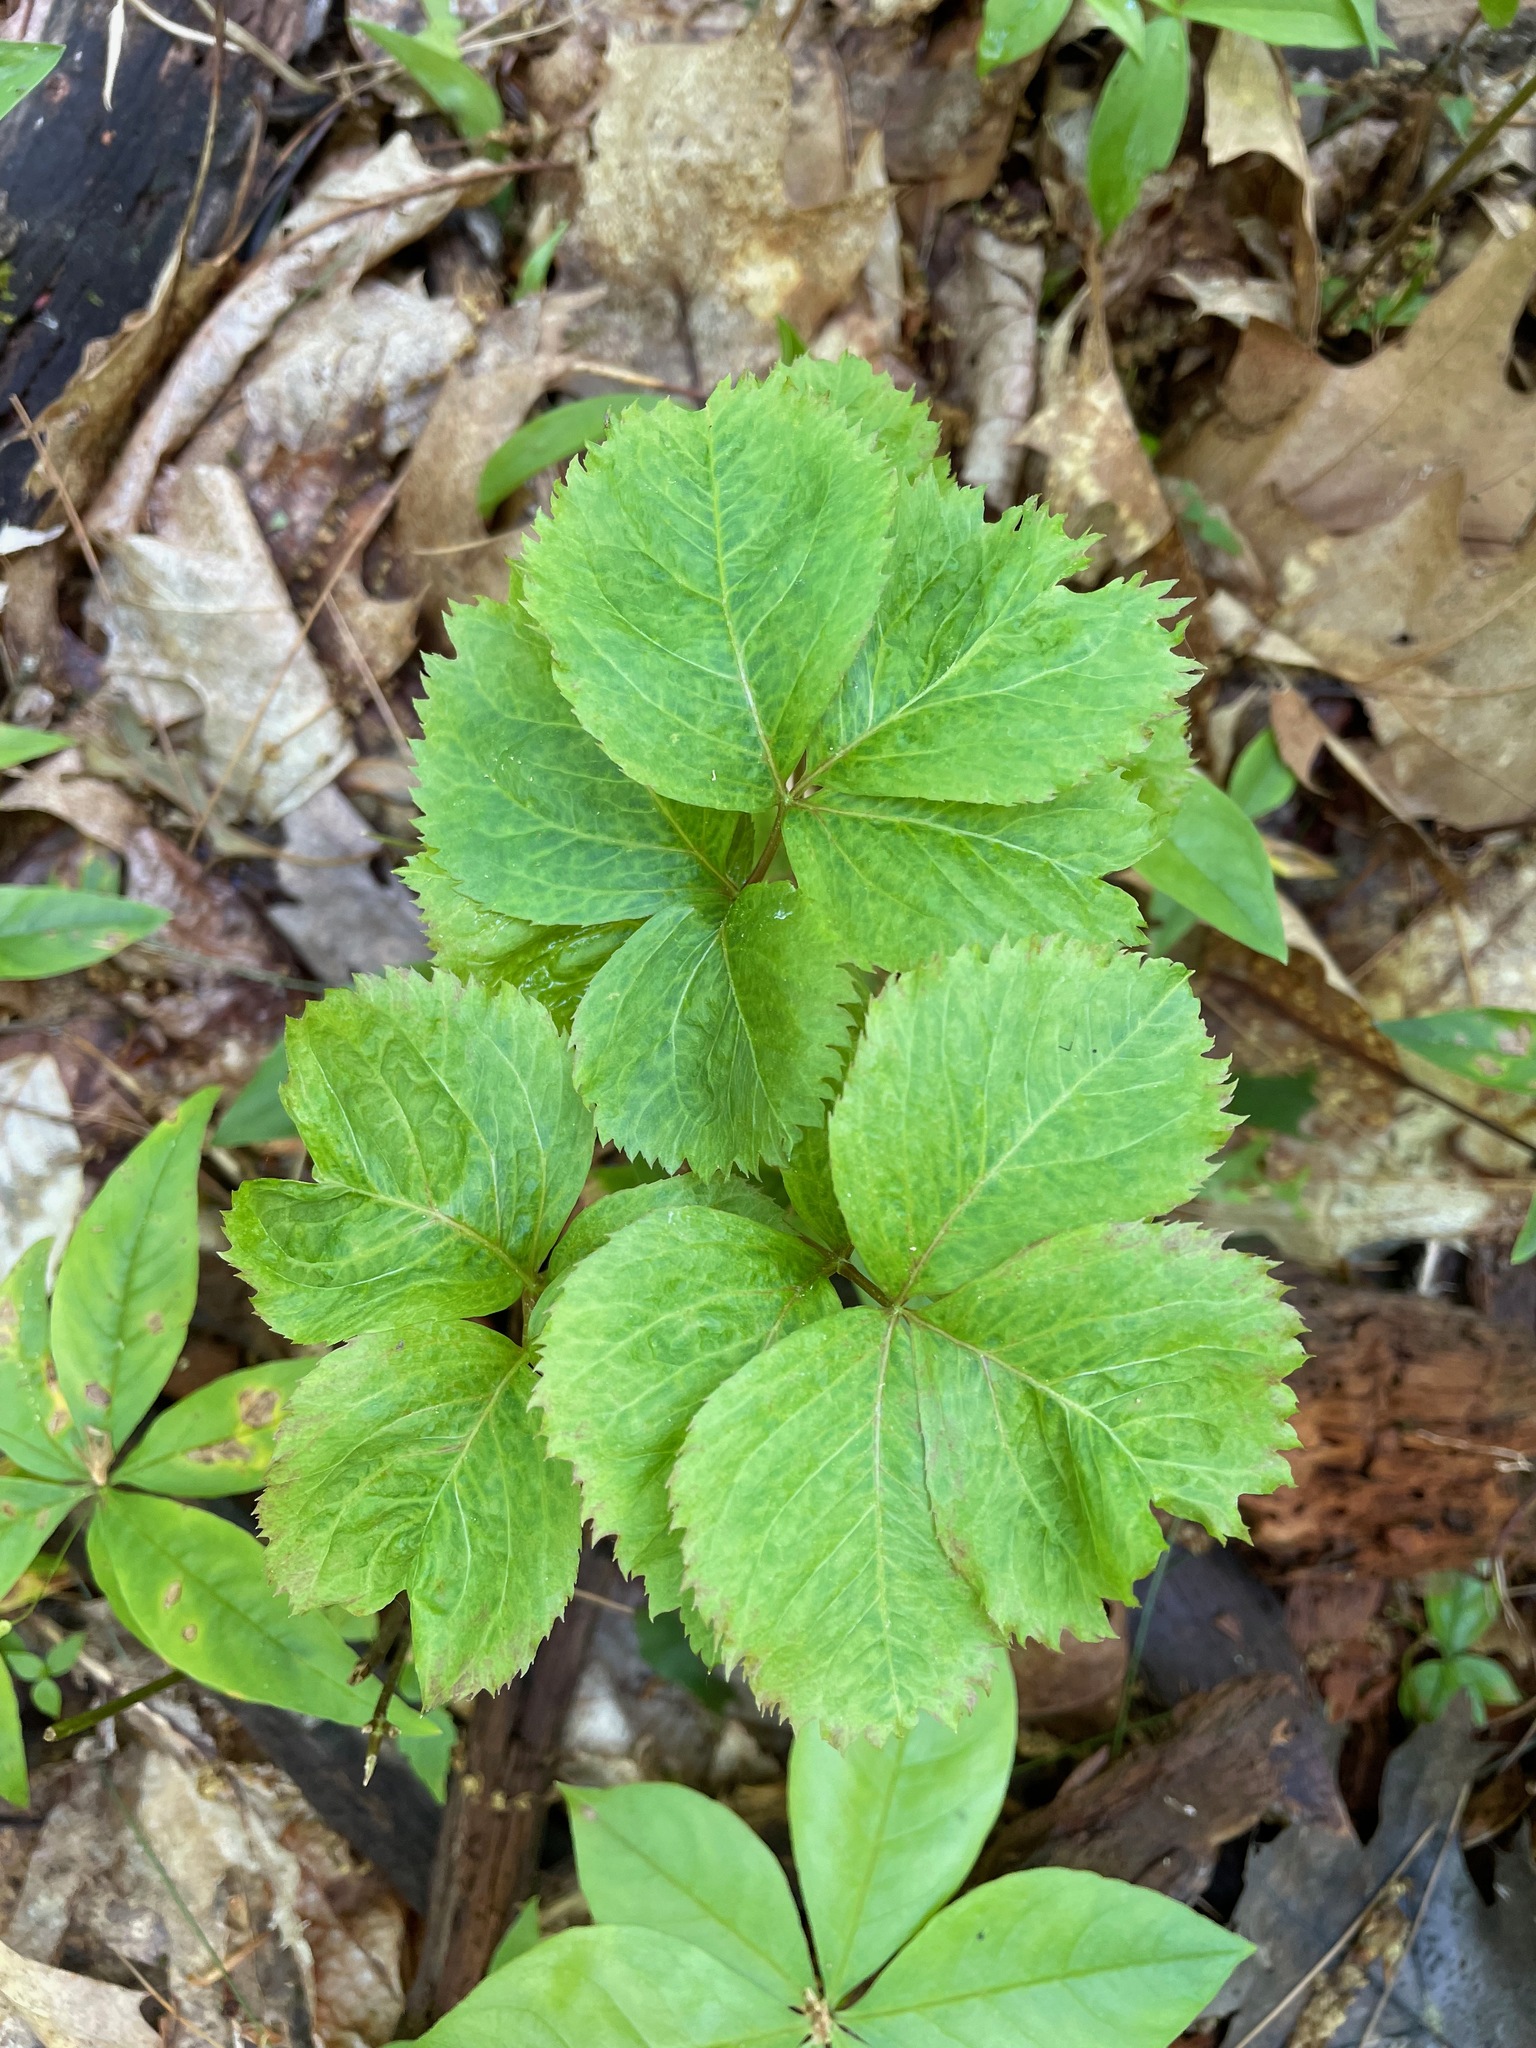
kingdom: Plantae
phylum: Tracheophyta
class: Magnoliopsida
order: Apiales
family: Araliaceae
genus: Aralia
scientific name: Aralia nudicaulis
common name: Wild sarsaparilla
